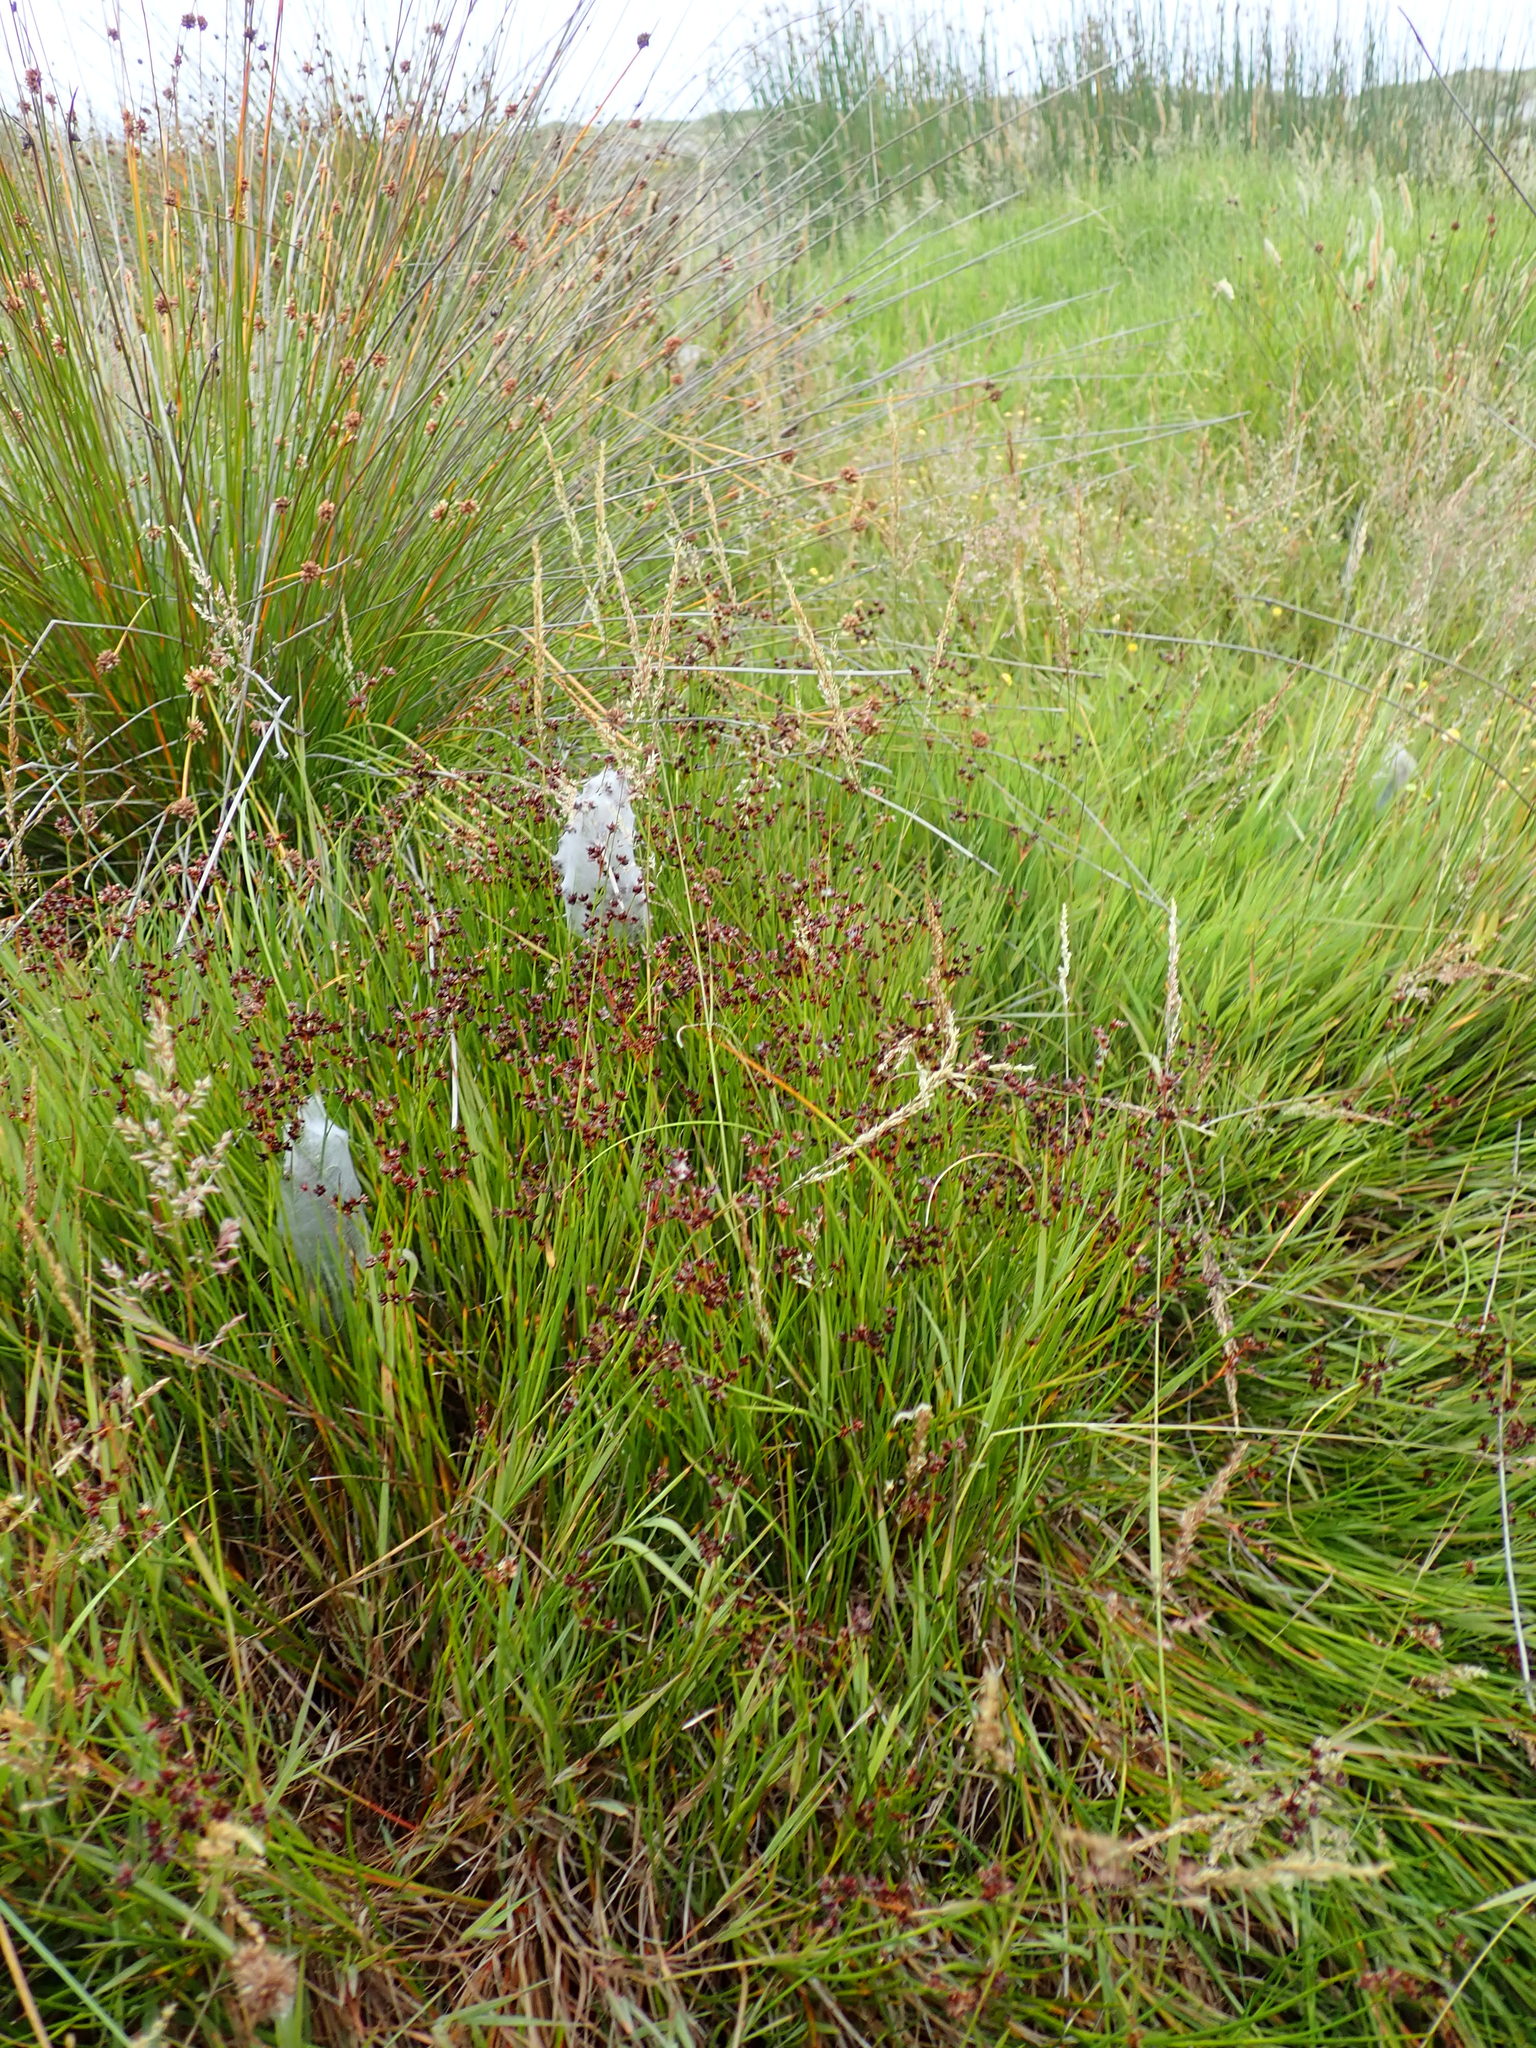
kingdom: Plantae
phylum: Tracheophyta
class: Liliopsida
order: Poales
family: Juncaceae
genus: Juncus
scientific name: Juncus articulatus
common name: Jointed rush
